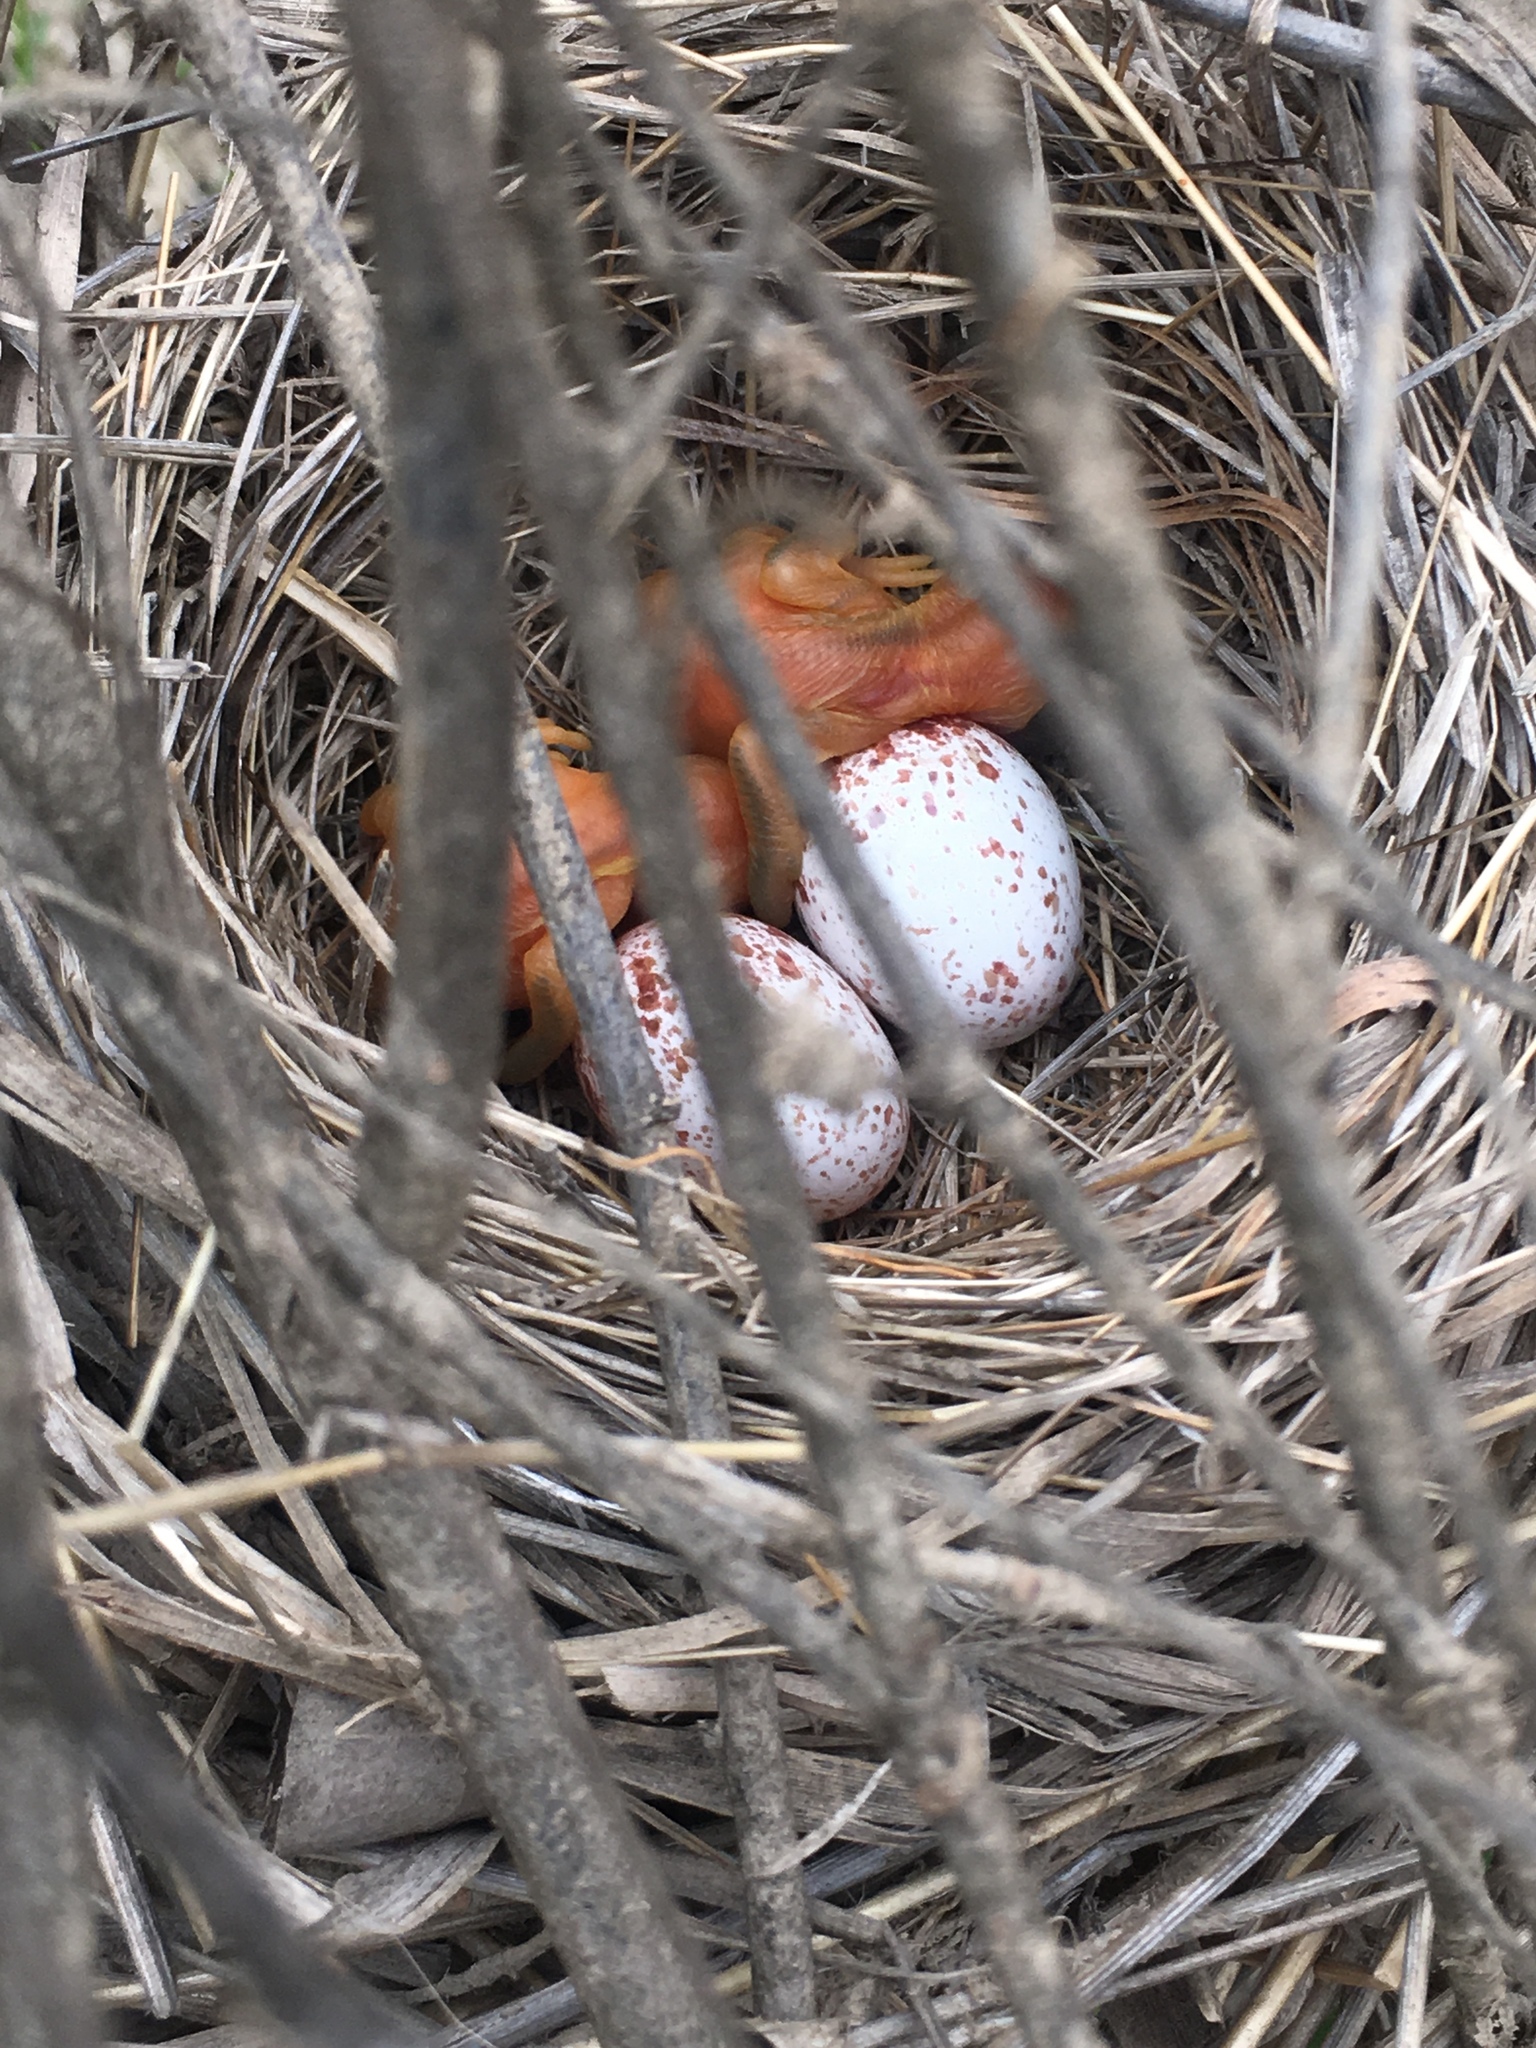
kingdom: Animalia
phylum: Chordata
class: Aves
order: Passeriformes
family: Parulidae
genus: Icteria
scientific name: Icteria virens
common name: Yellow-breasted chat
